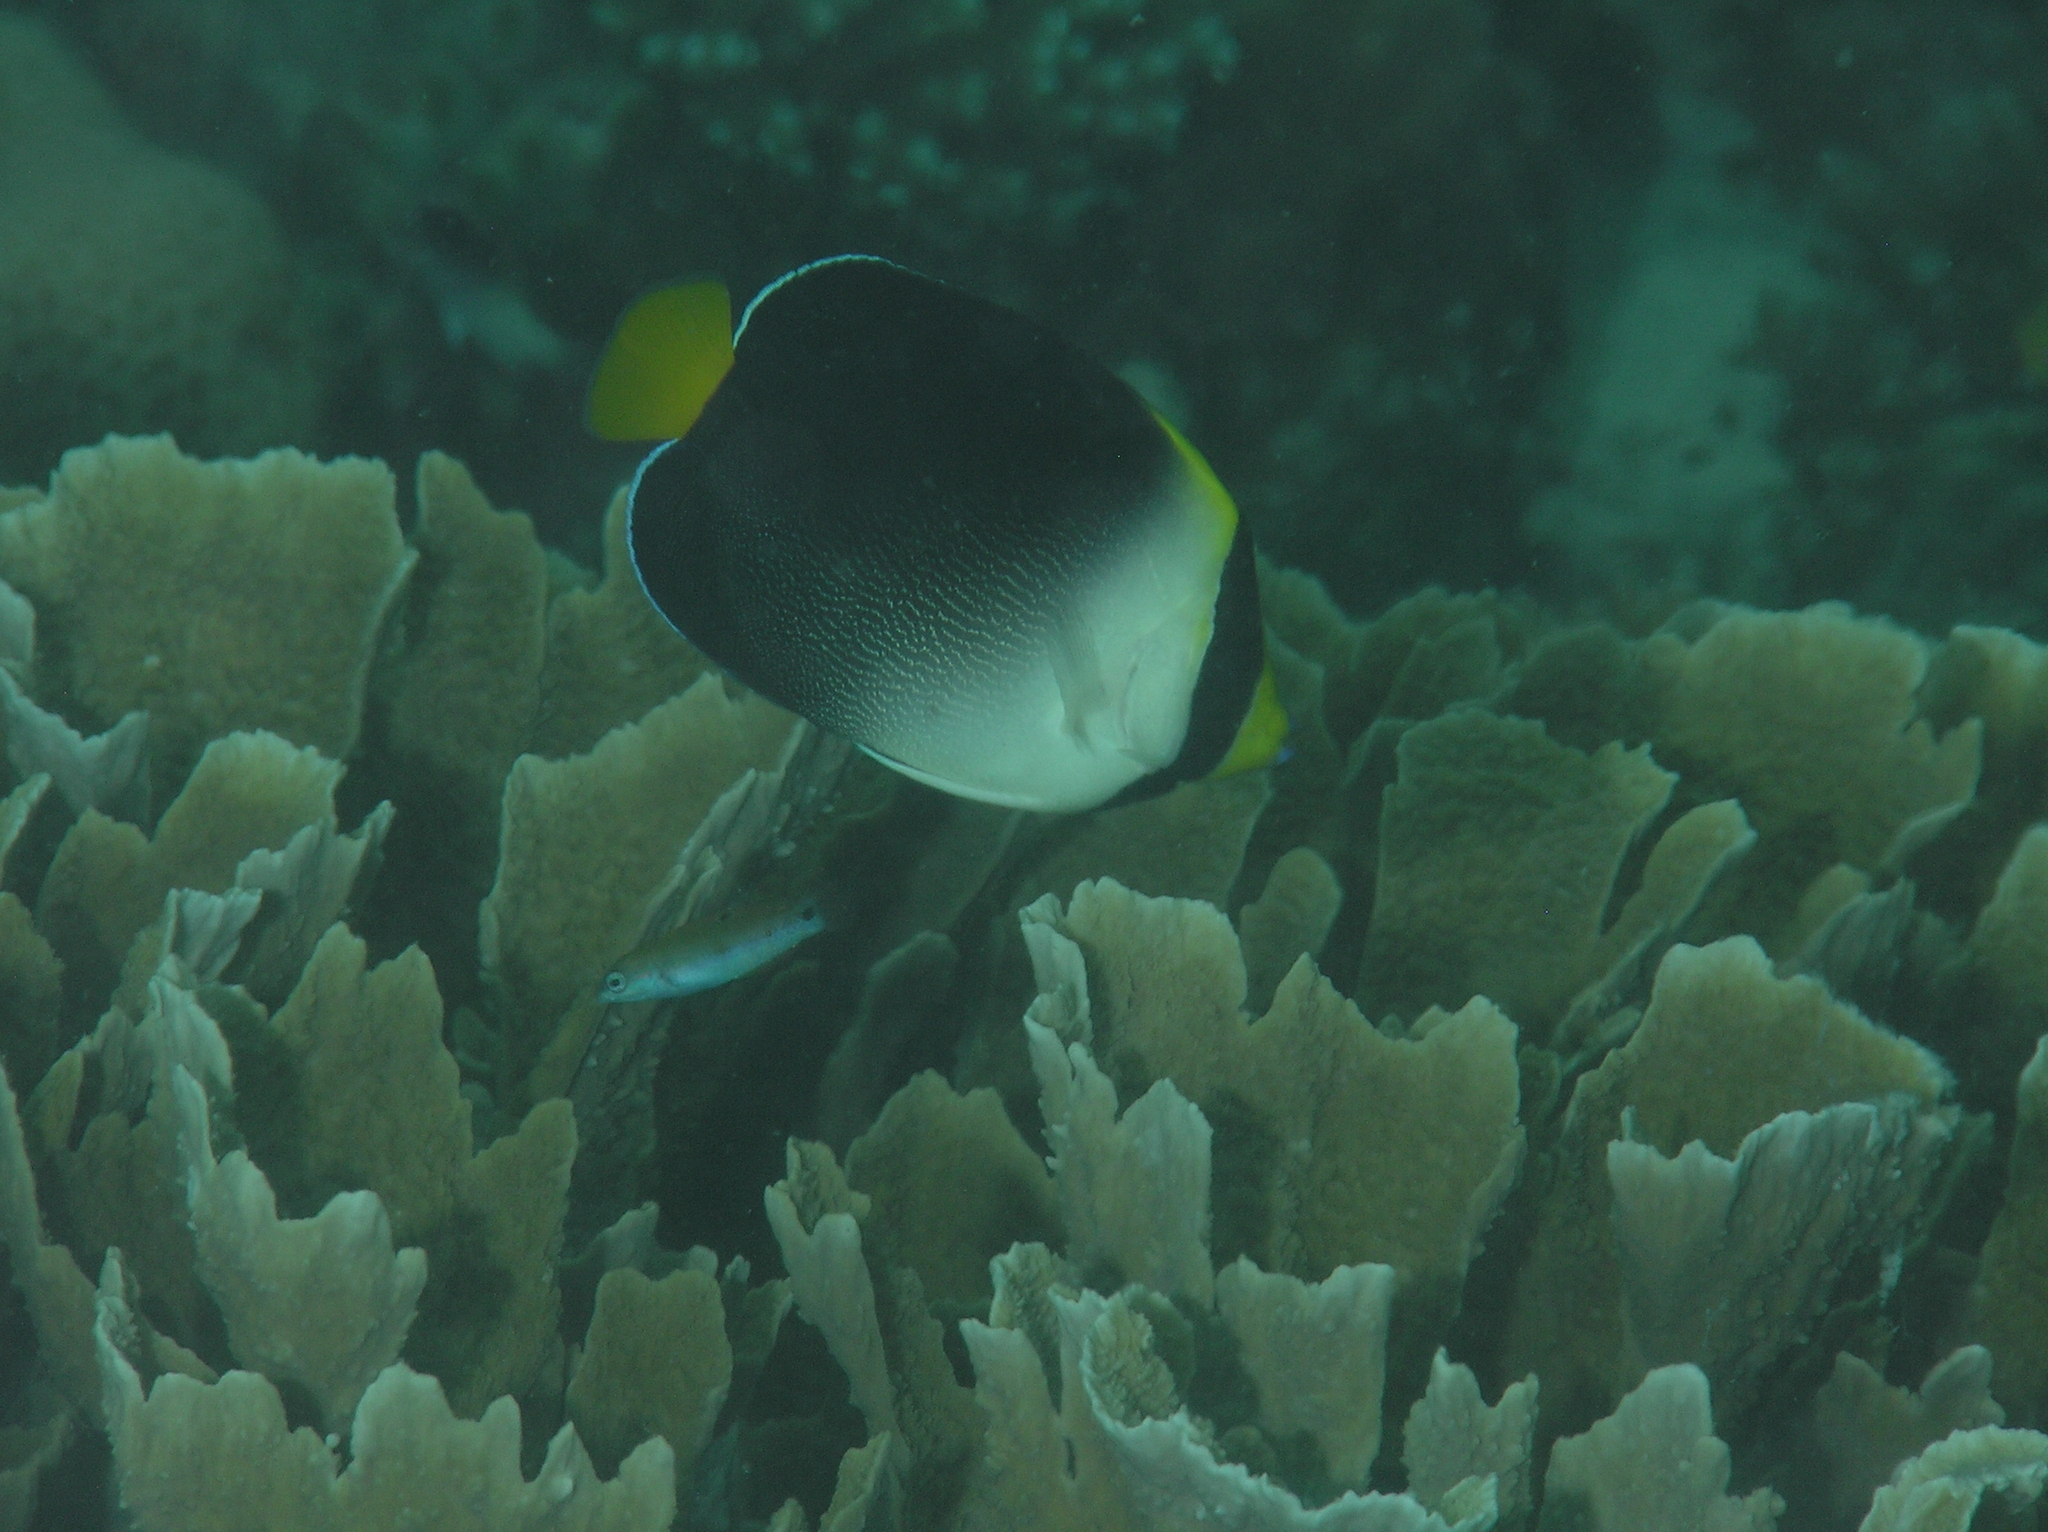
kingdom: Animalia
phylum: Chordata
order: Perciformes
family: Pomacanthidae
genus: Chaetodontoplus
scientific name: Chaetodontoplus mesoleucus
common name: Vermiculated angelfish
